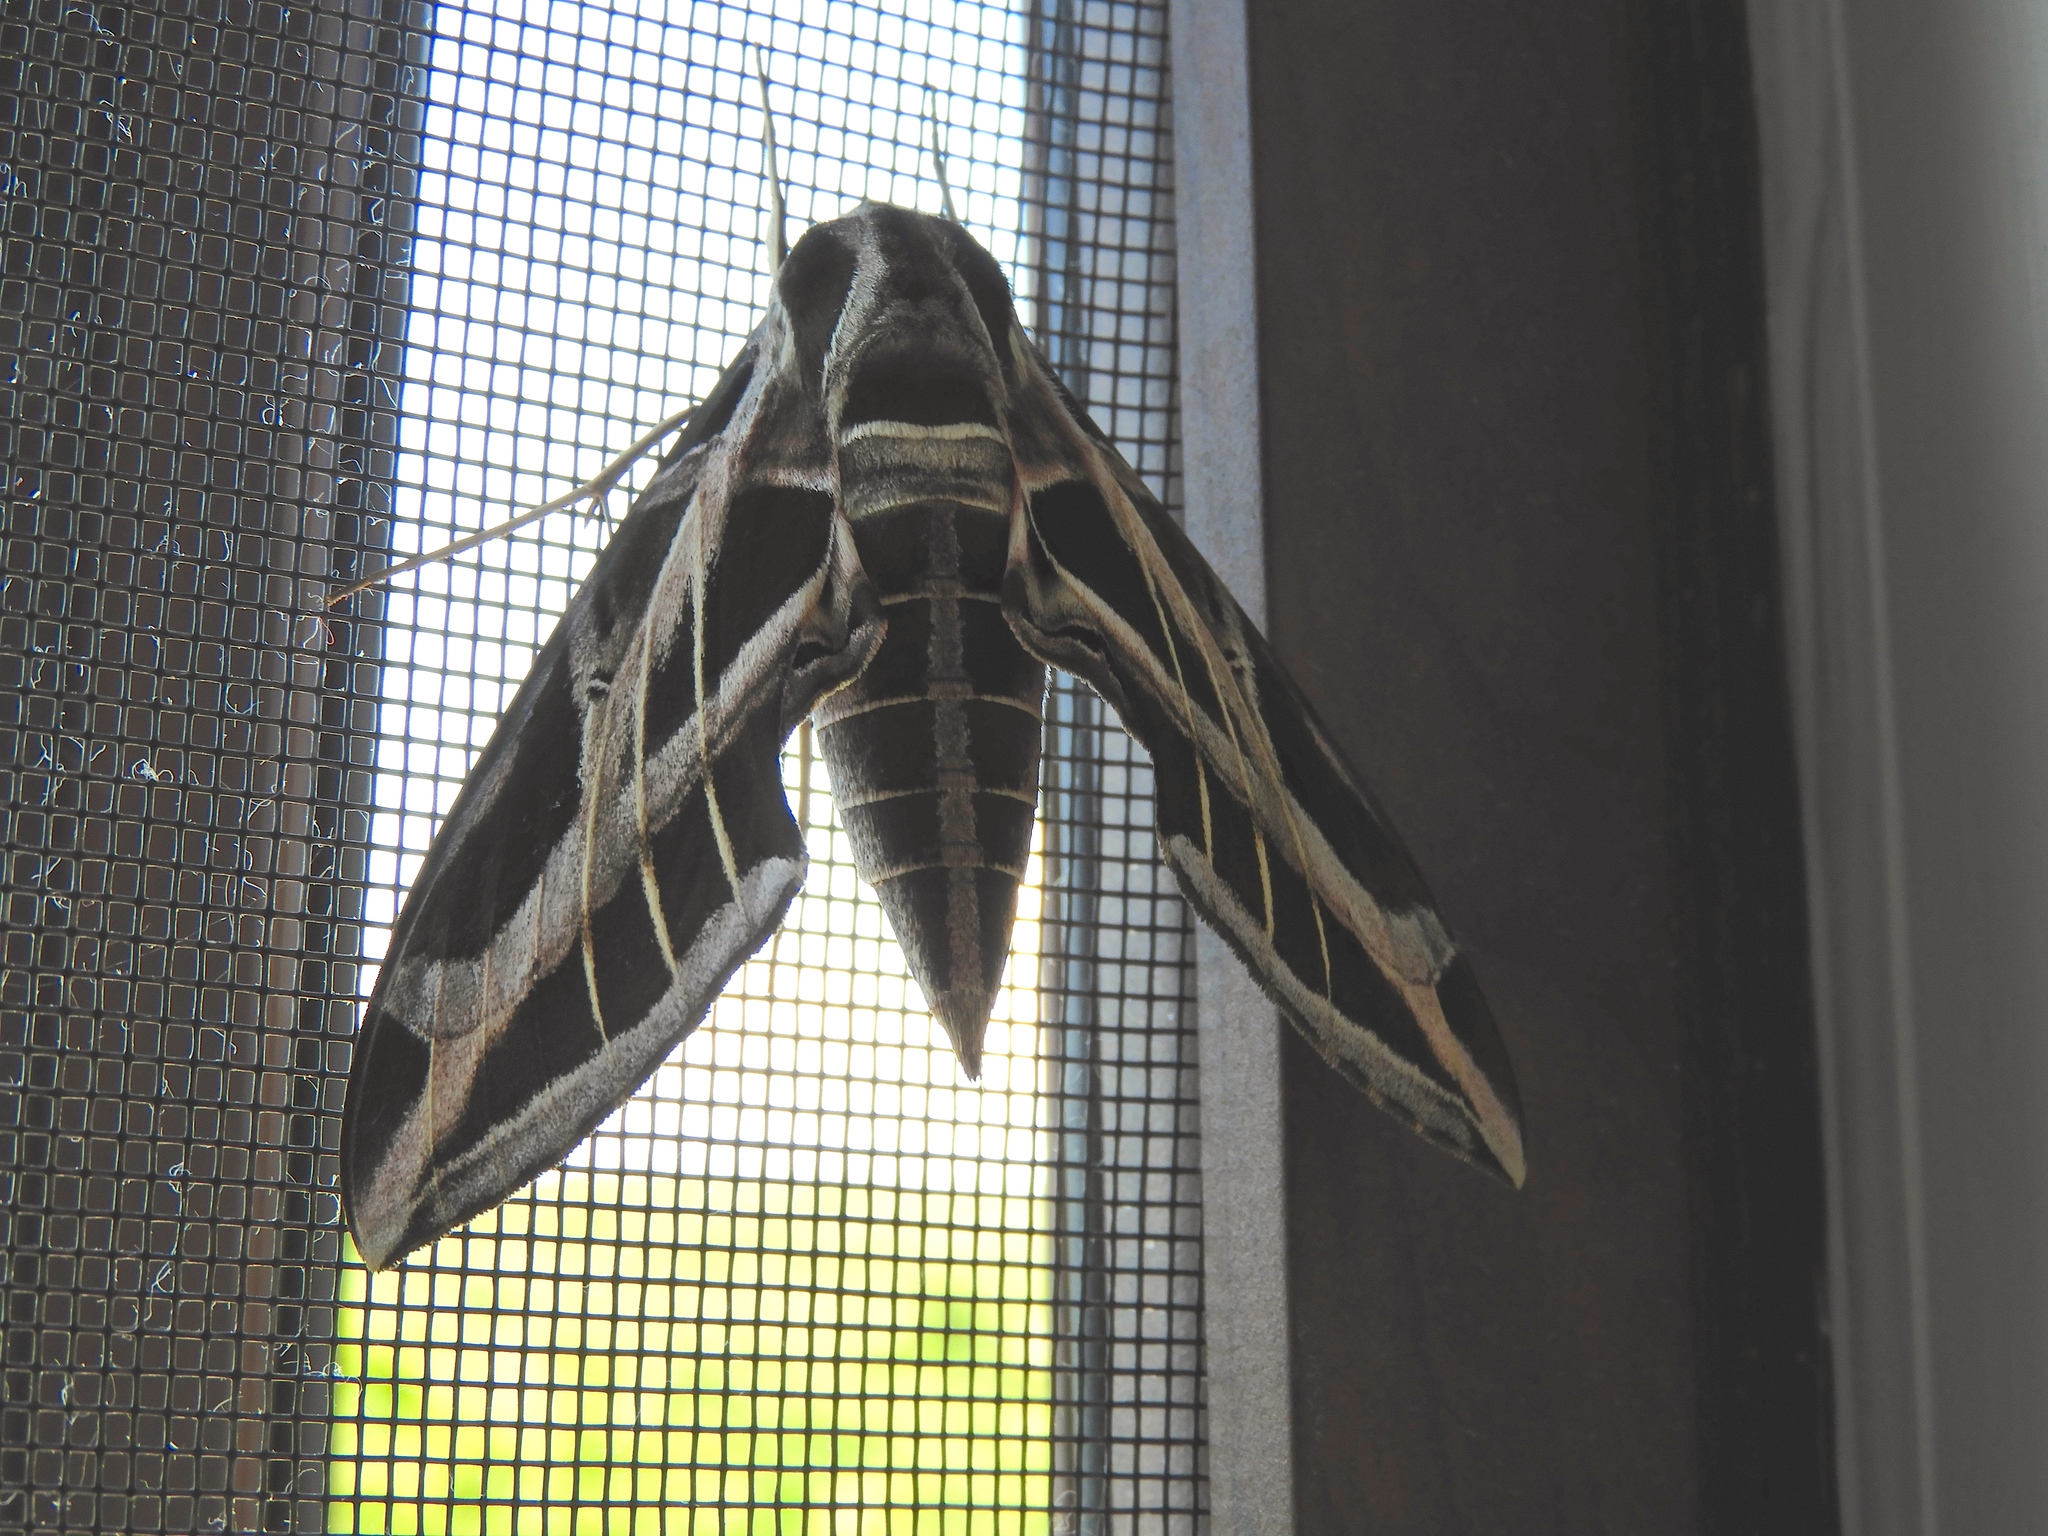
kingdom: Animalia
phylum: Arthropoda
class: Insecta
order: Lepidoptera
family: Sphingidae
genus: Eumorpha
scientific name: Eumorpha vitis
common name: Vine sphinx
